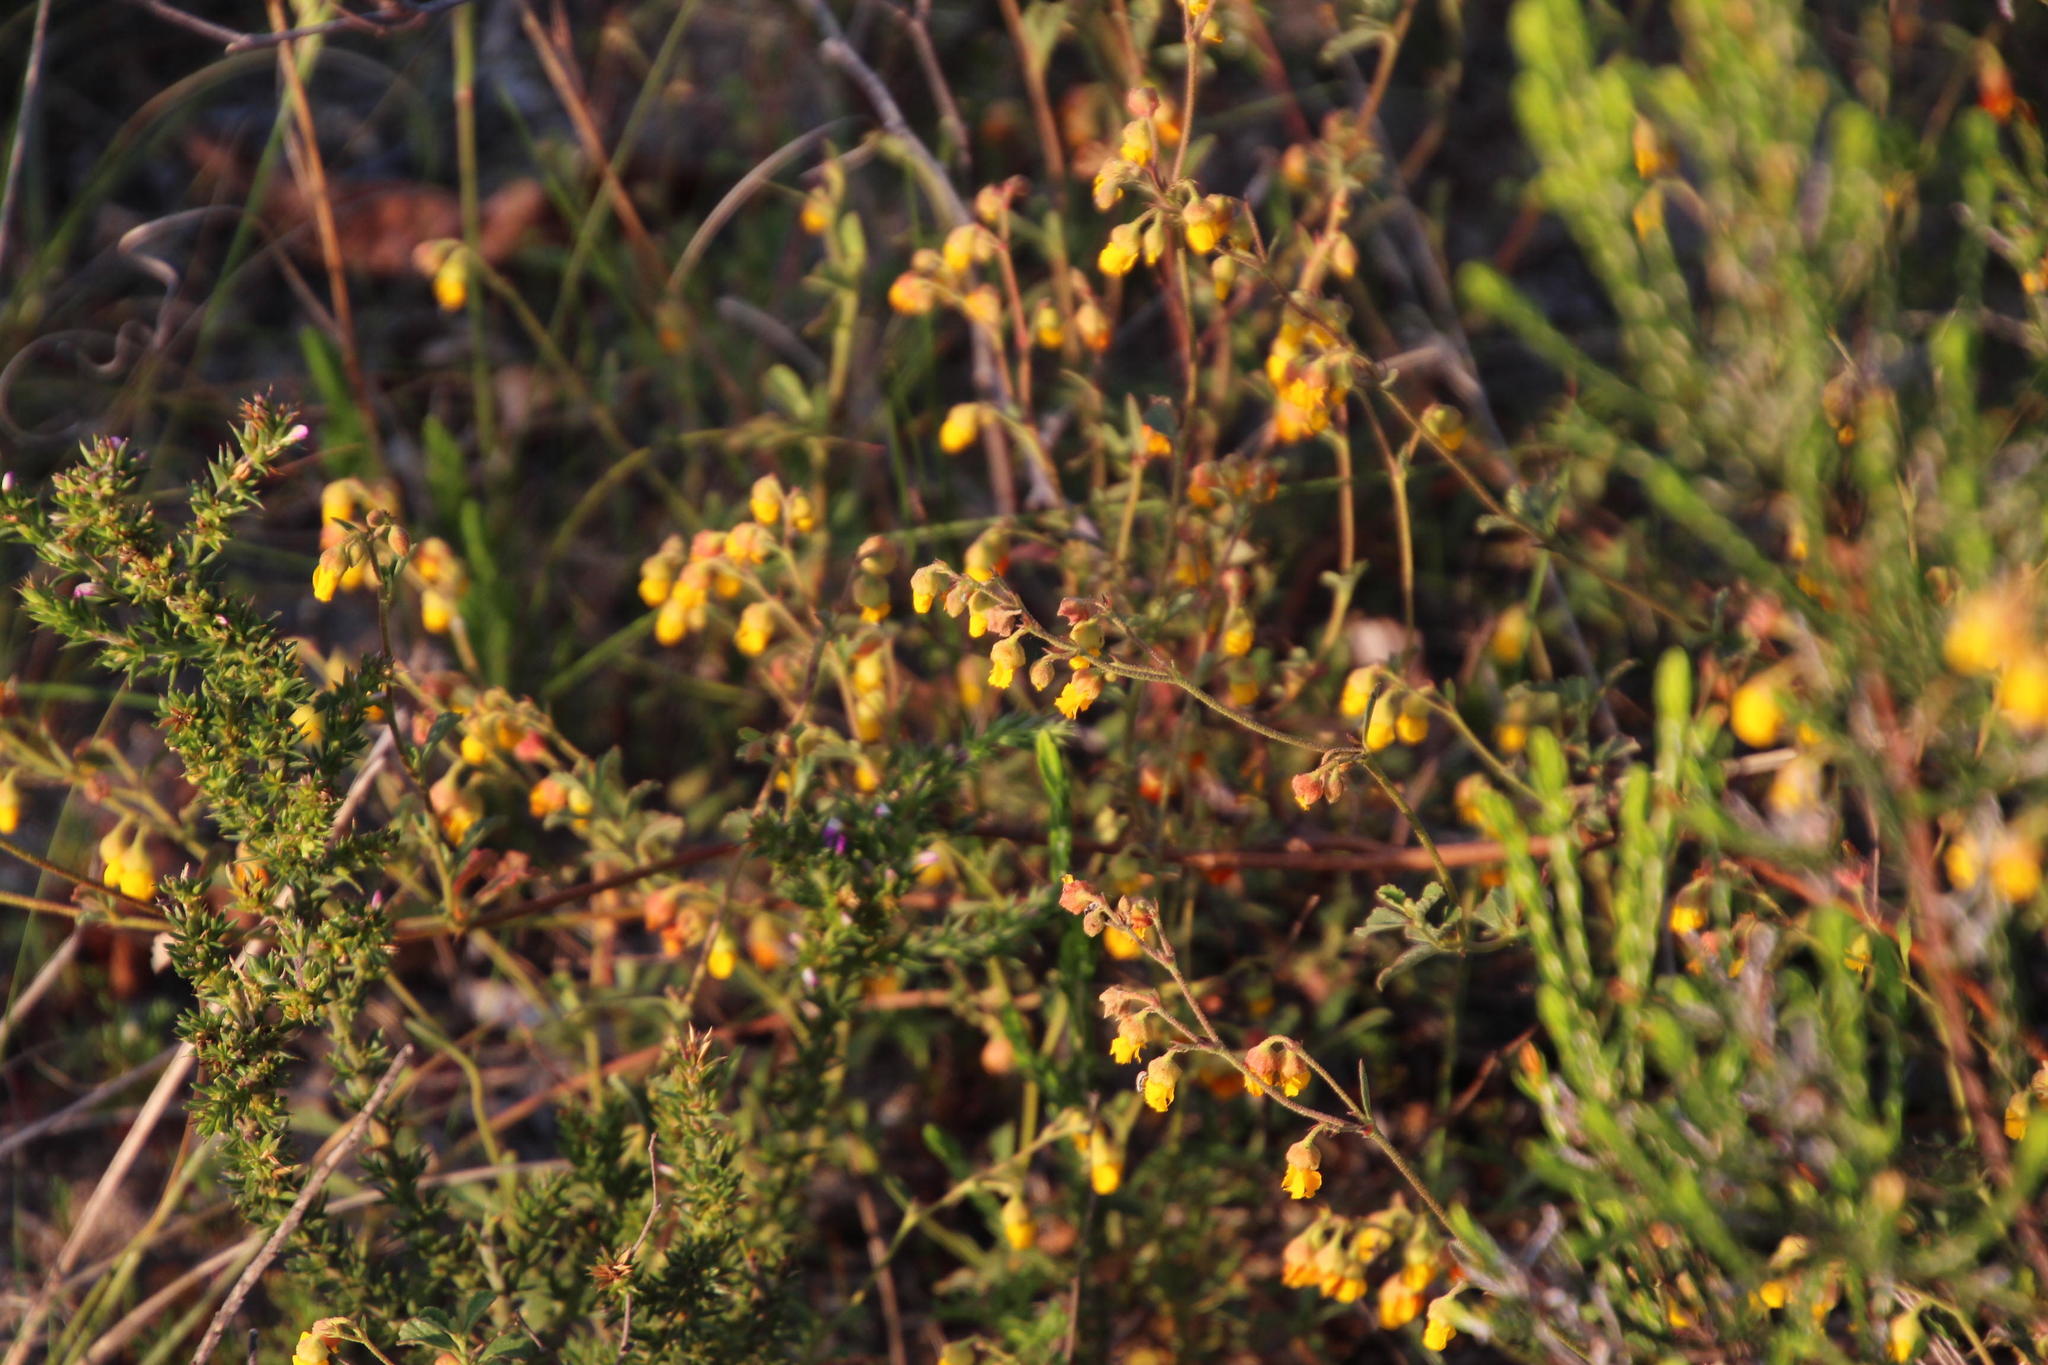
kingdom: Plantae
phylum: Tracheophyta
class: Magnoliopsida
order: Malvales
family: Malvaceae
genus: Hermannia
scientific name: Hermannia multiflora
